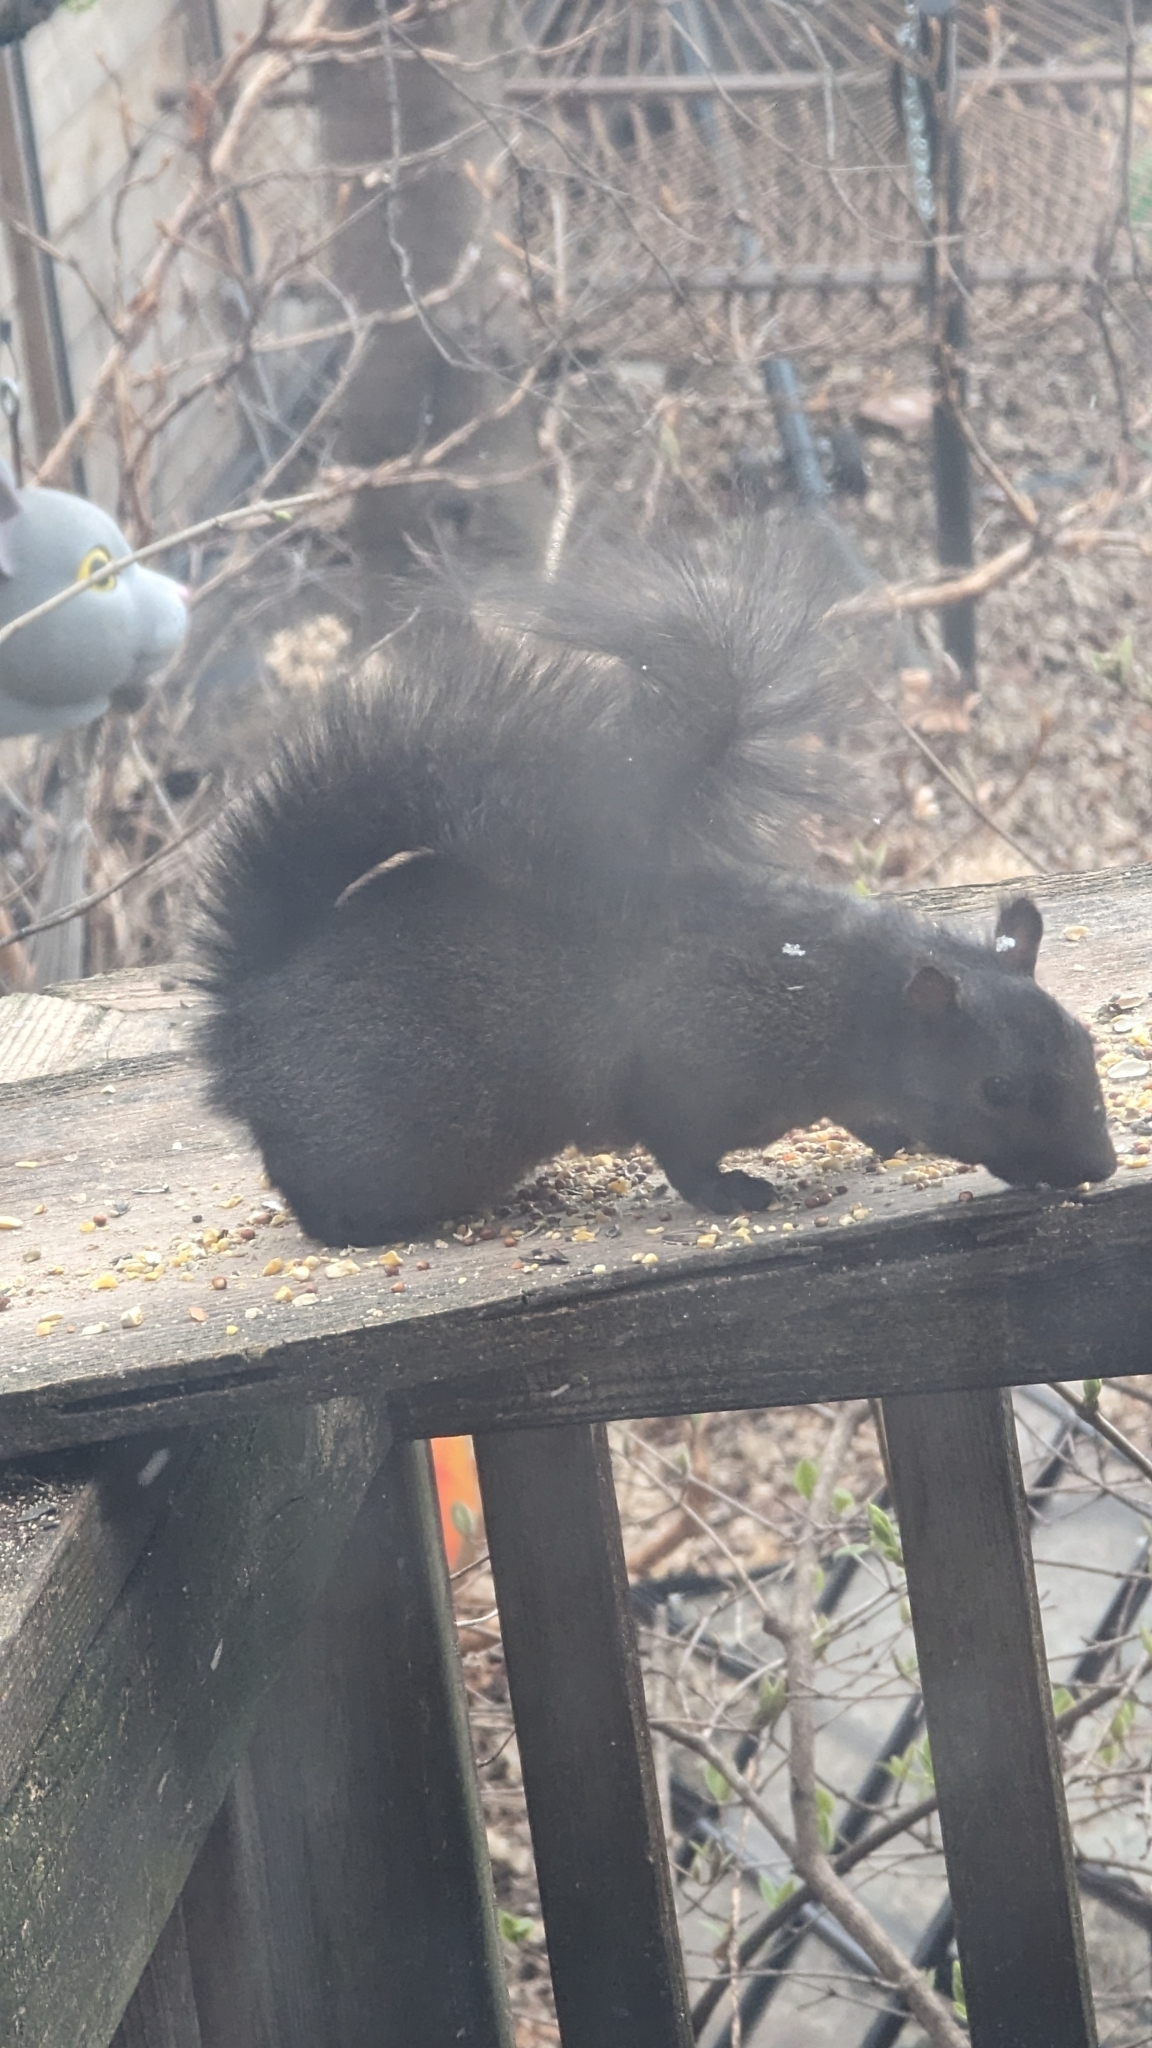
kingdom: Animalia
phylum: Chordata
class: Mammalia
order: Rodentia
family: Sciuridae
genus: Sciurus
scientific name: Sciurus carolinensis
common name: Eastern gray squirrel
